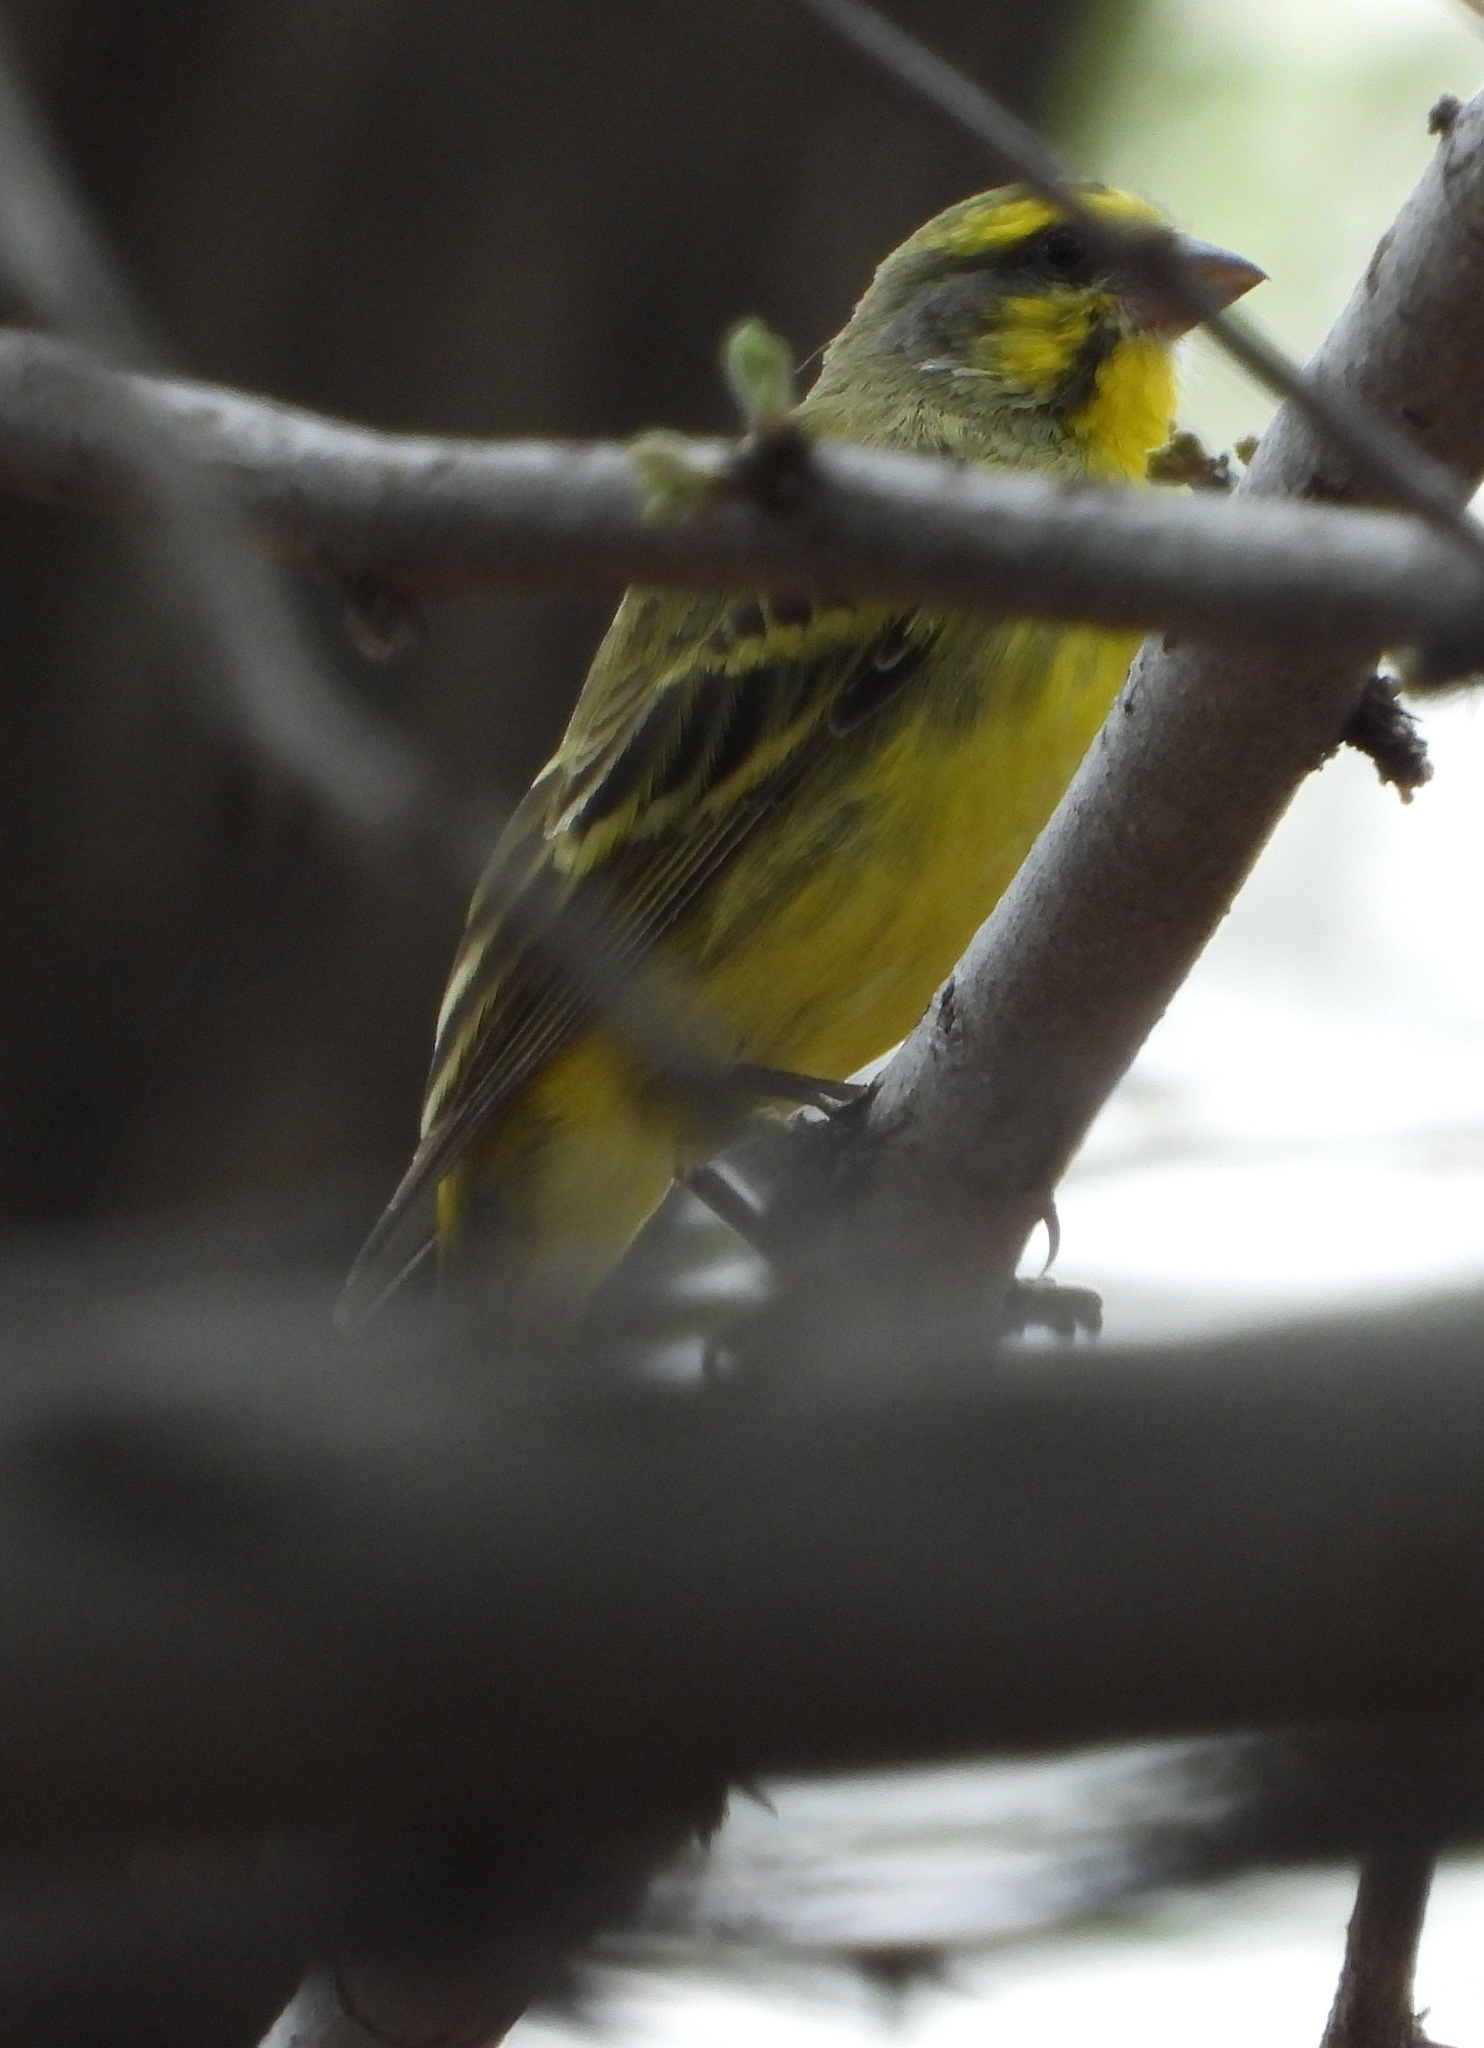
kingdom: Animalia
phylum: Chordata
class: Aves
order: Passeriformes
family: Fringillidae
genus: Crithagra
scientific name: Crithagra mozambica
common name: Yellow-fronted canary
